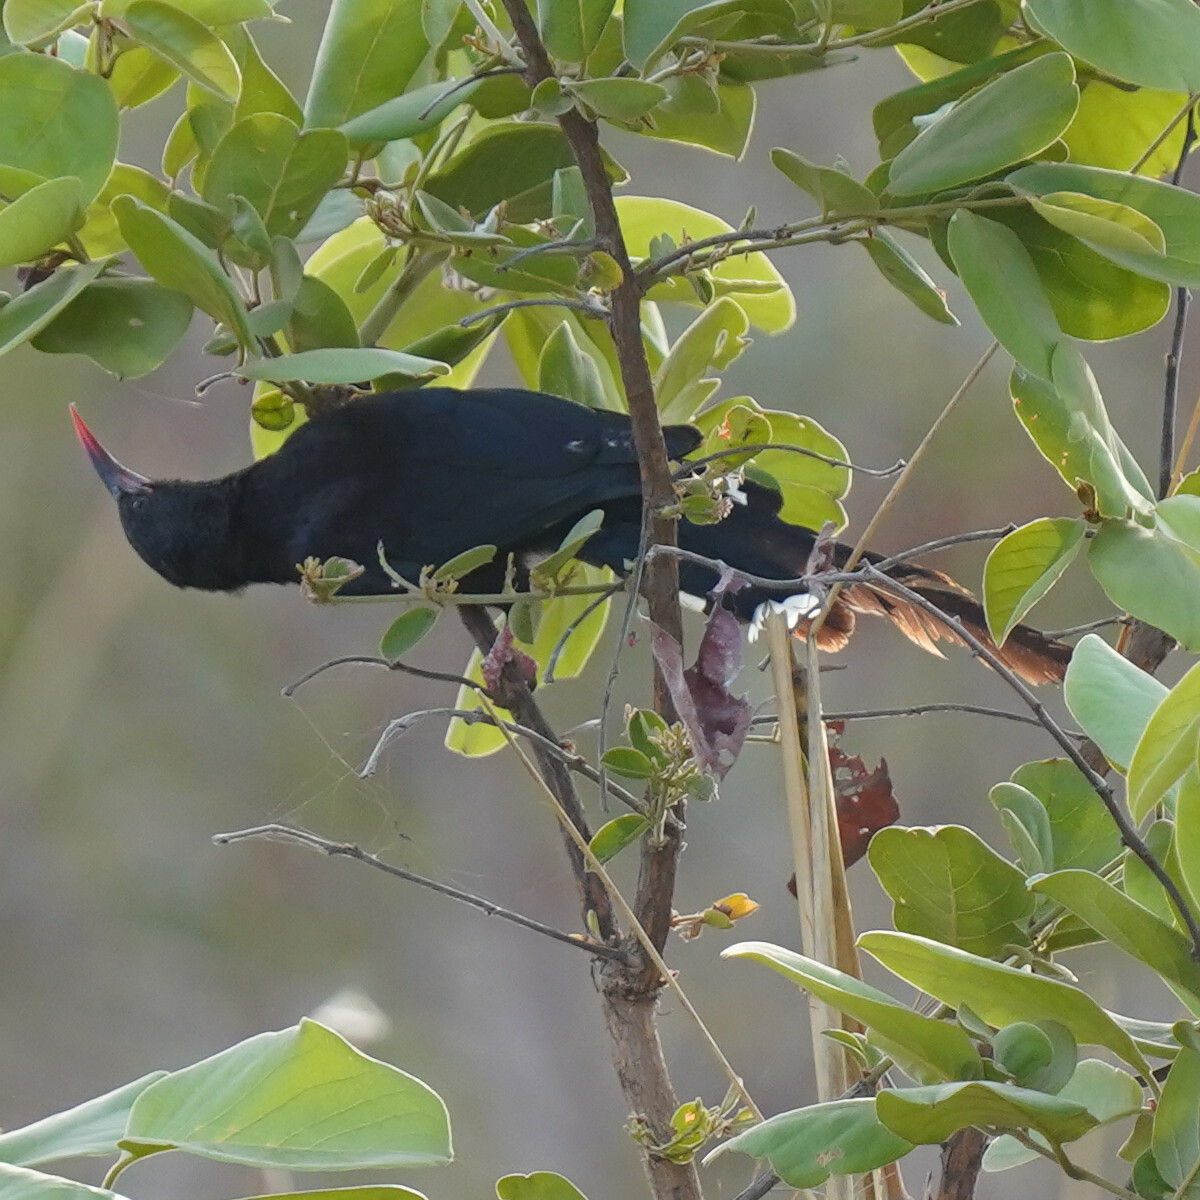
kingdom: Animalia
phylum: Chordata
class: Aves
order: Bucerotiformes
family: Phoeniculidae
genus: Phoeniculus
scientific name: Phoeniculus purpureus
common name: Green woodhoopoe
